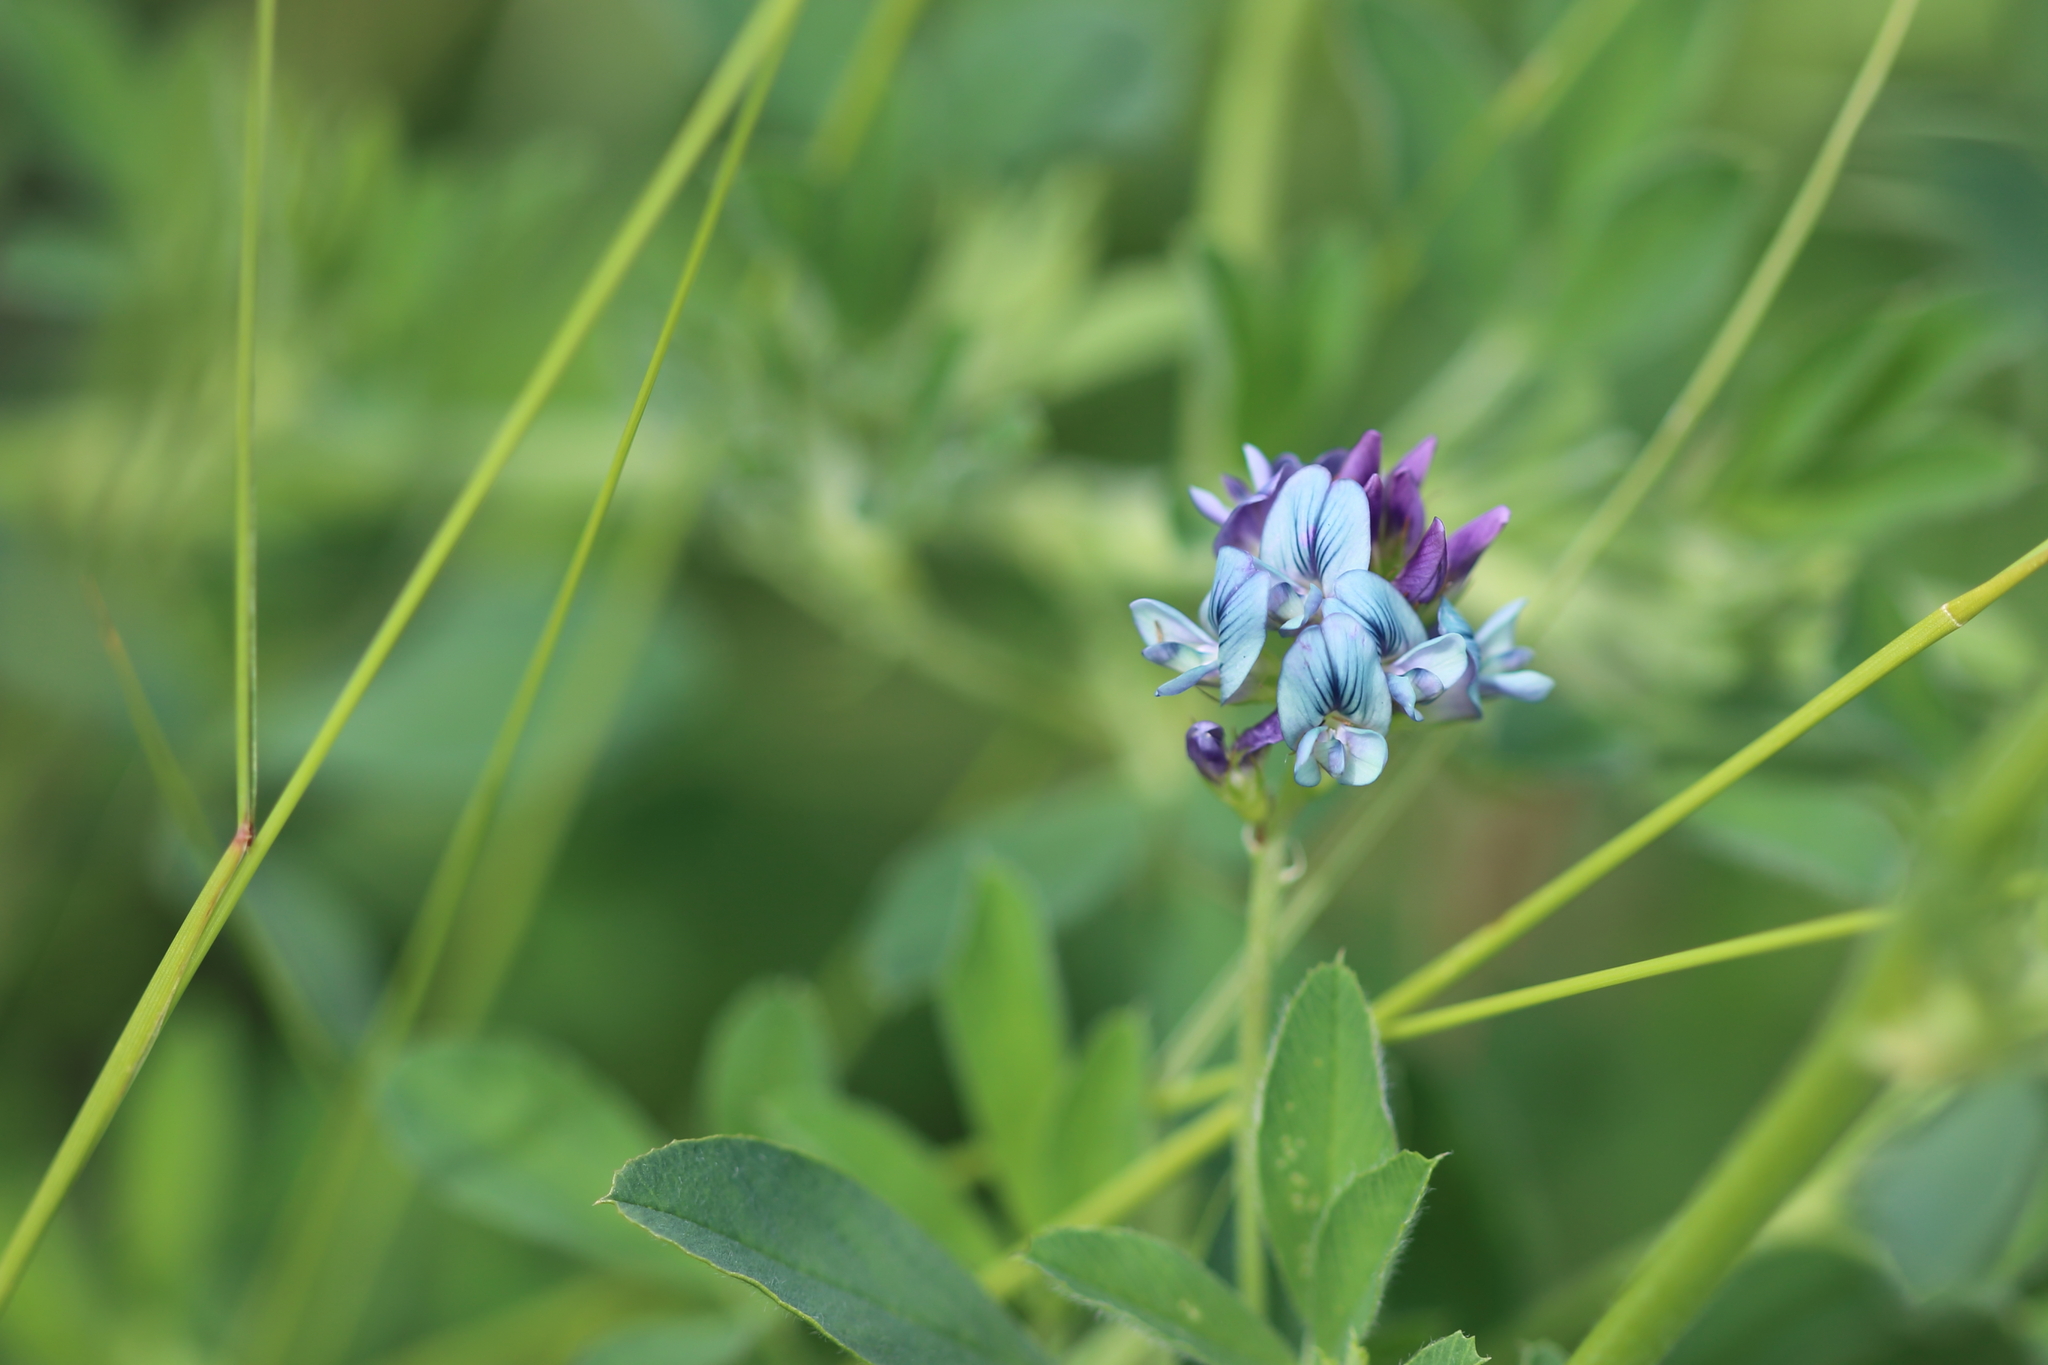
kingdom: Plantae
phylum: Tracheophyta
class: Magnoliopsida
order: Fabales
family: Fabaceae
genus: Medicago
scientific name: Medicago sativa
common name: Alfalfa
